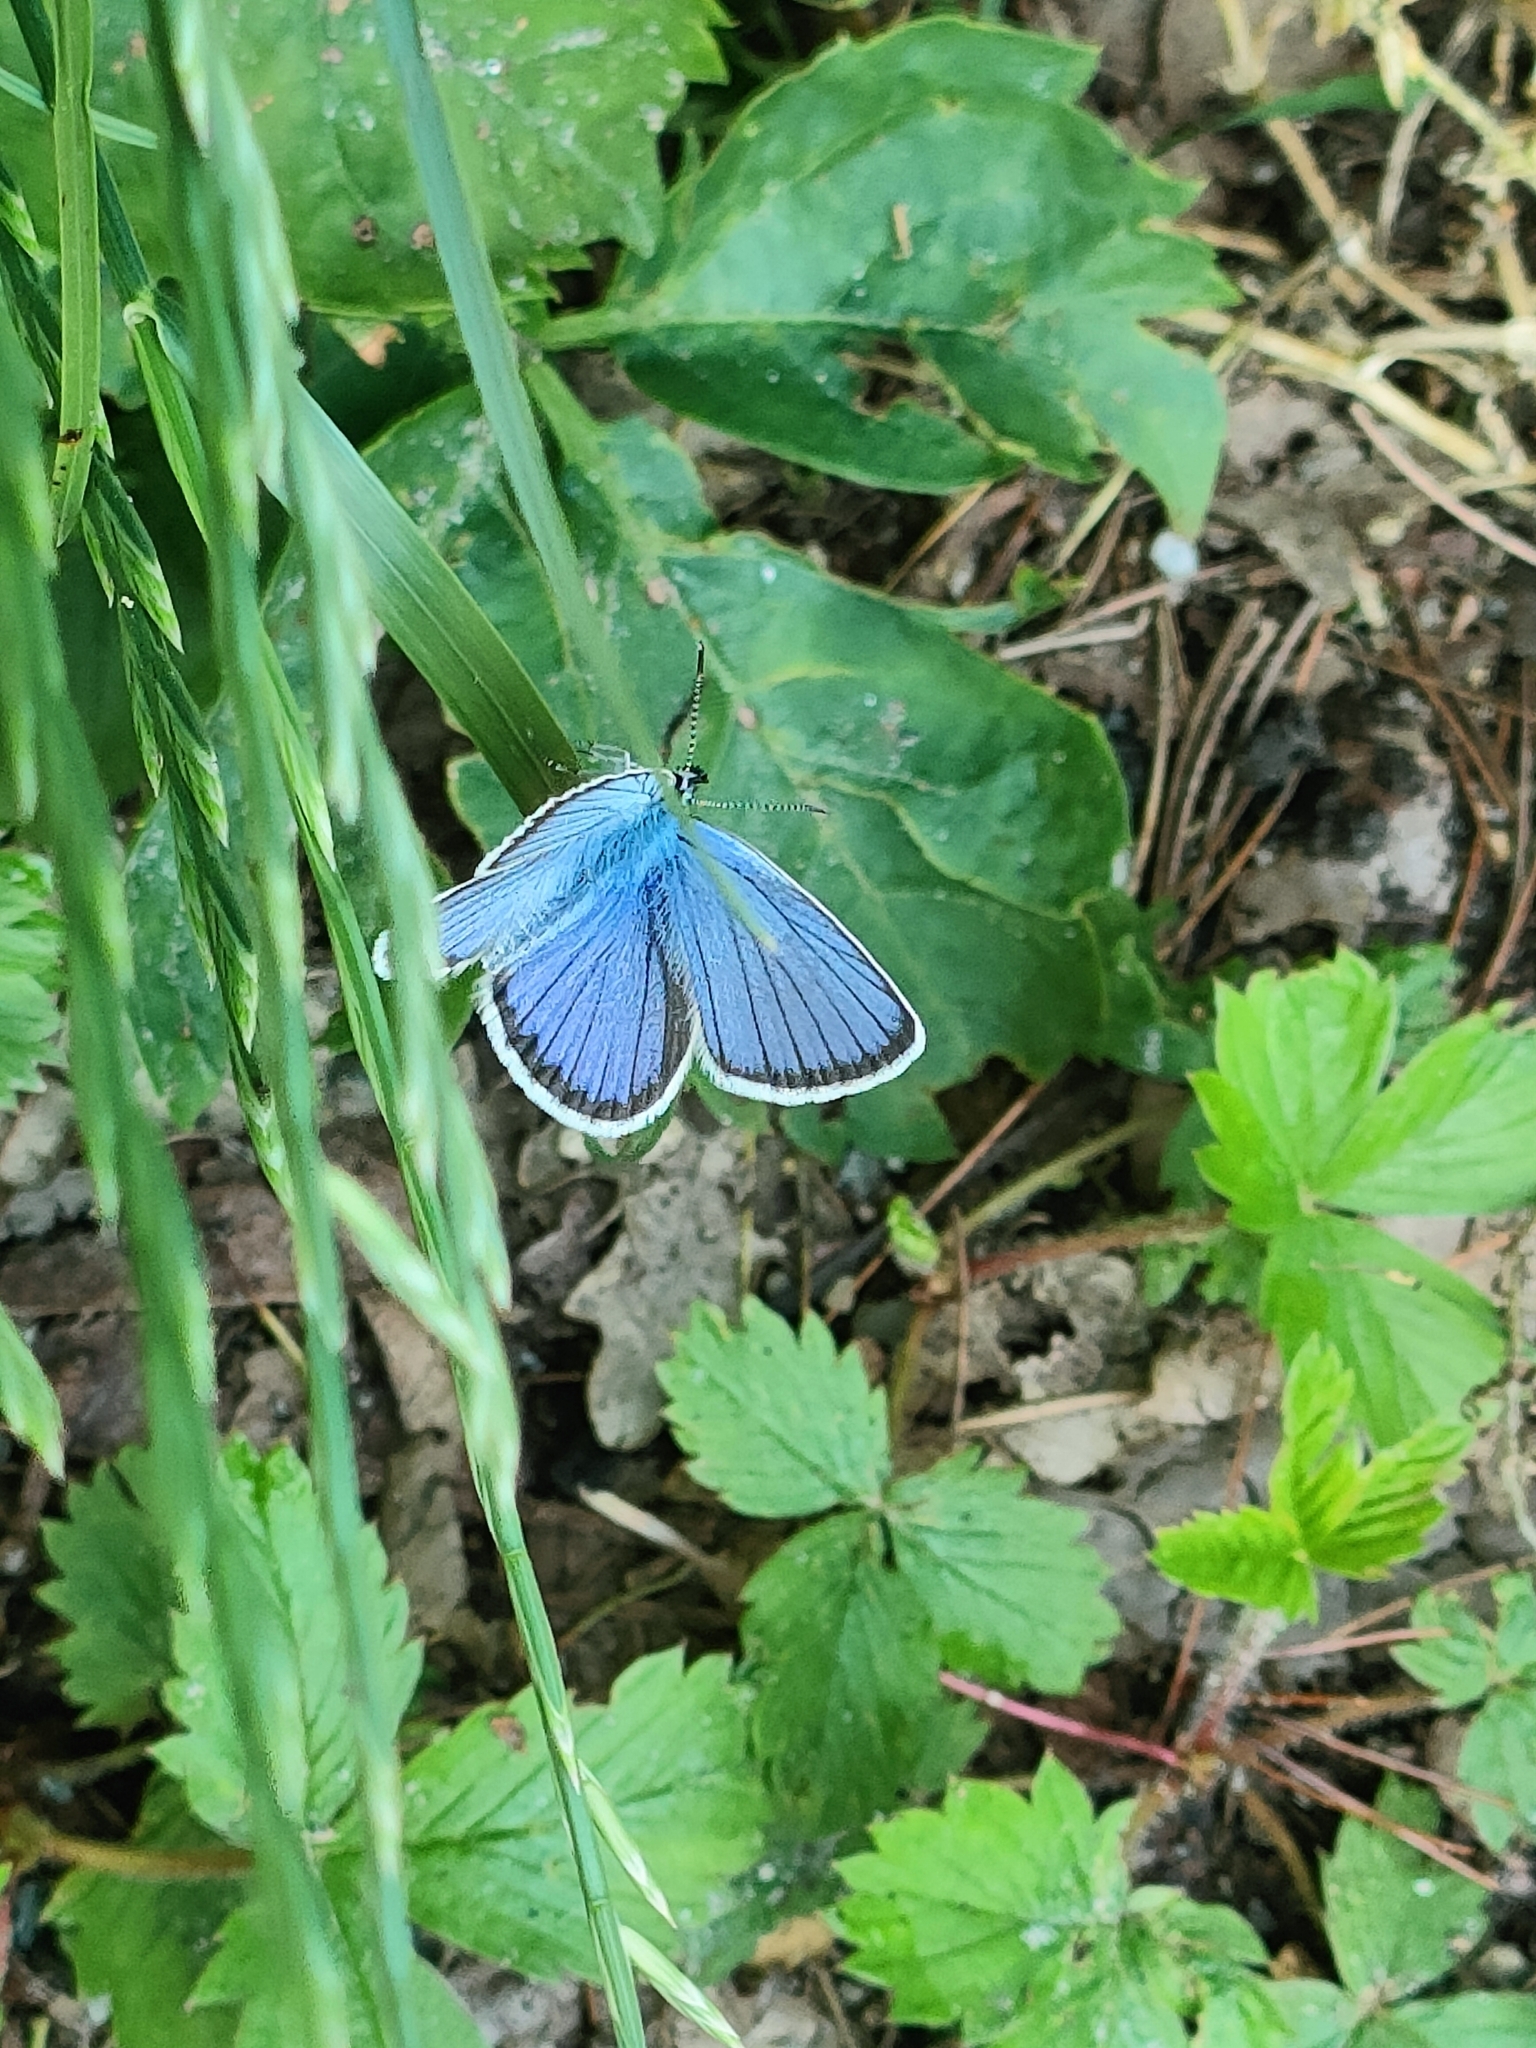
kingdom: Animalia
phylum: Arthropoda
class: Insecta
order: Lepidoptera
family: Lycaenidae
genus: Plebejus
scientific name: Plebejus argus
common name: Silver-studded blue
